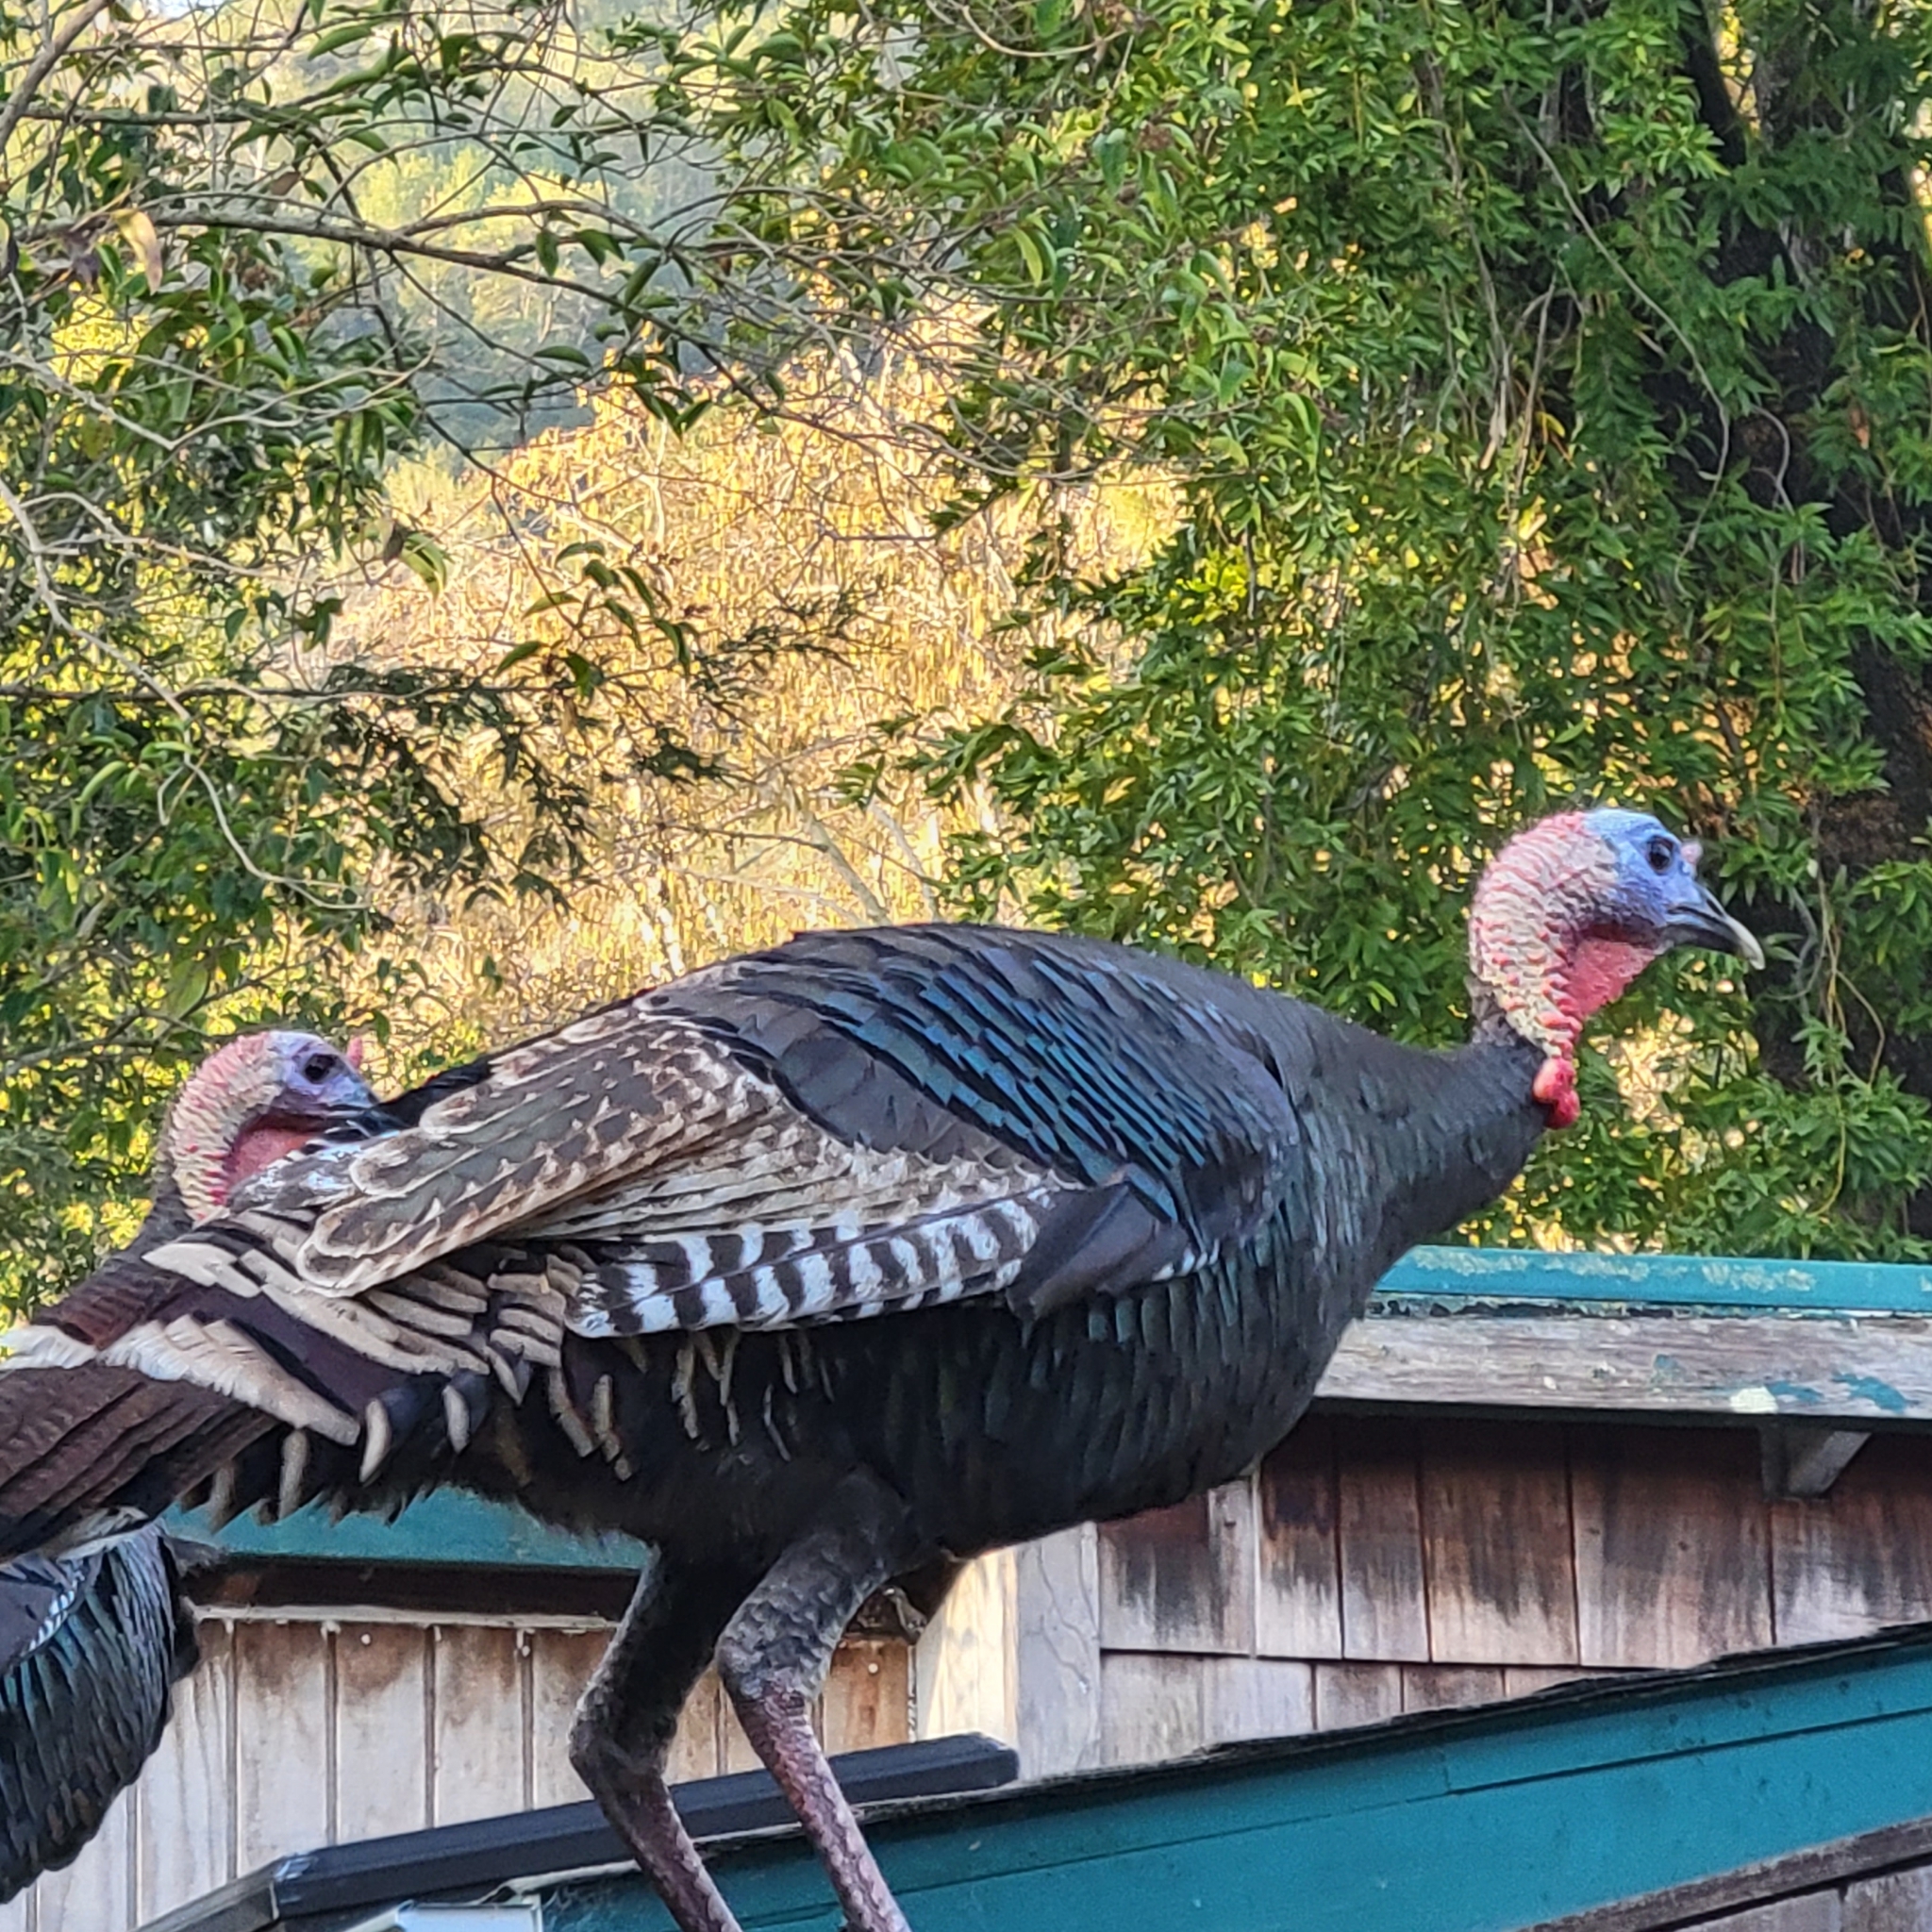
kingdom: Animalia
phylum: Chordata
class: Aves
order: Galliformes
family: Phasianidae
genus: Meleagris
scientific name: Meleagris gallopavo
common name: Wild turkey
